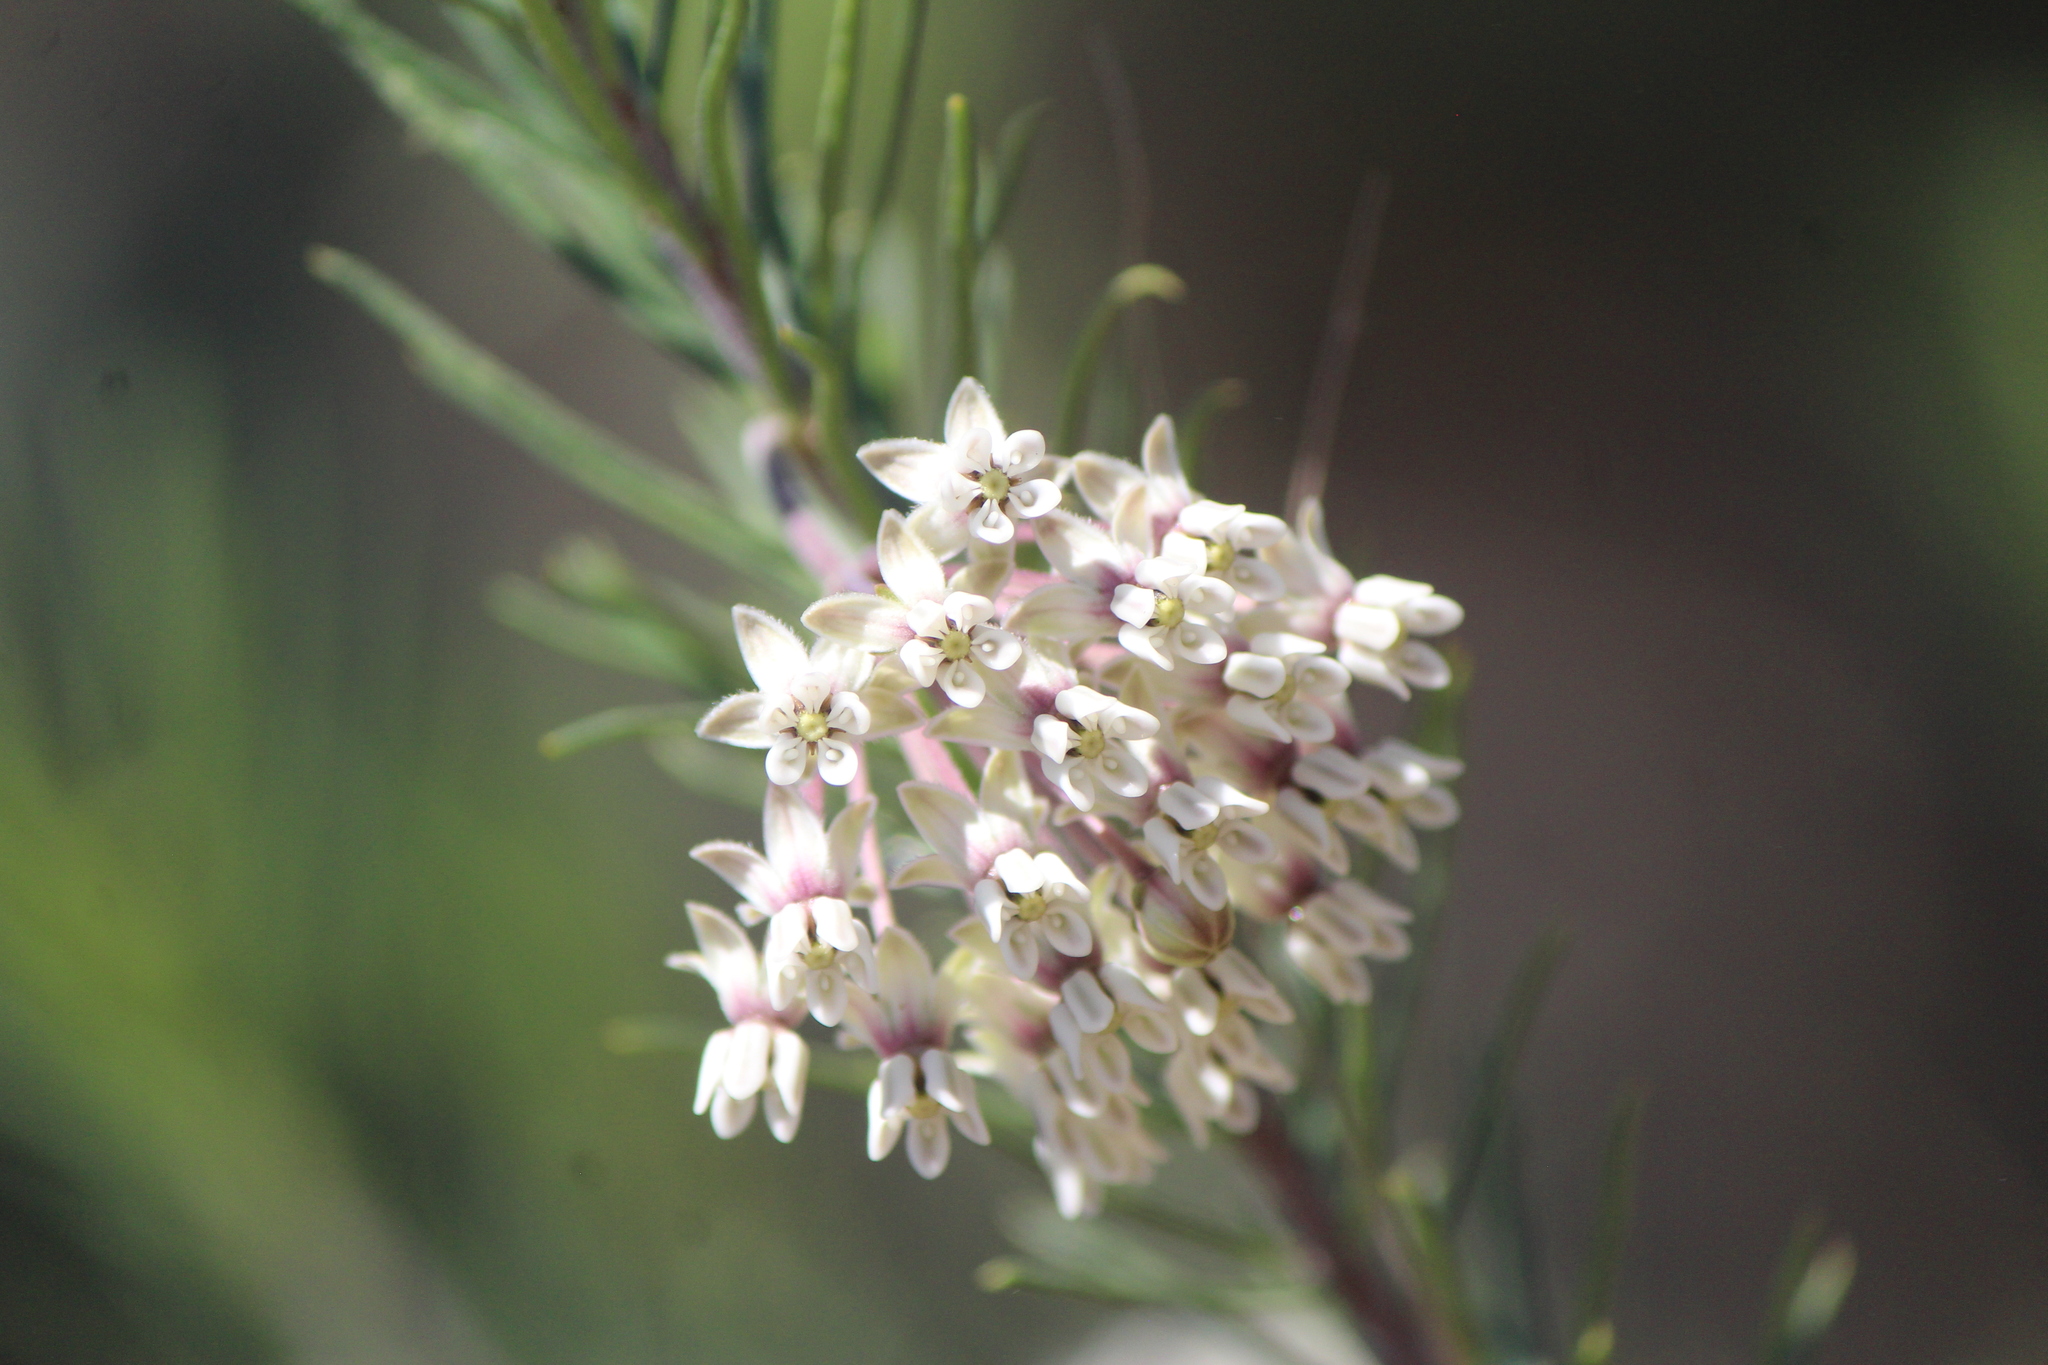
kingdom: Plantae
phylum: Tracheophyta
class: Magnoliopsida
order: Gentianales
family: Apocynaceae
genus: Asclepias
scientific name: Asclepias linaria
